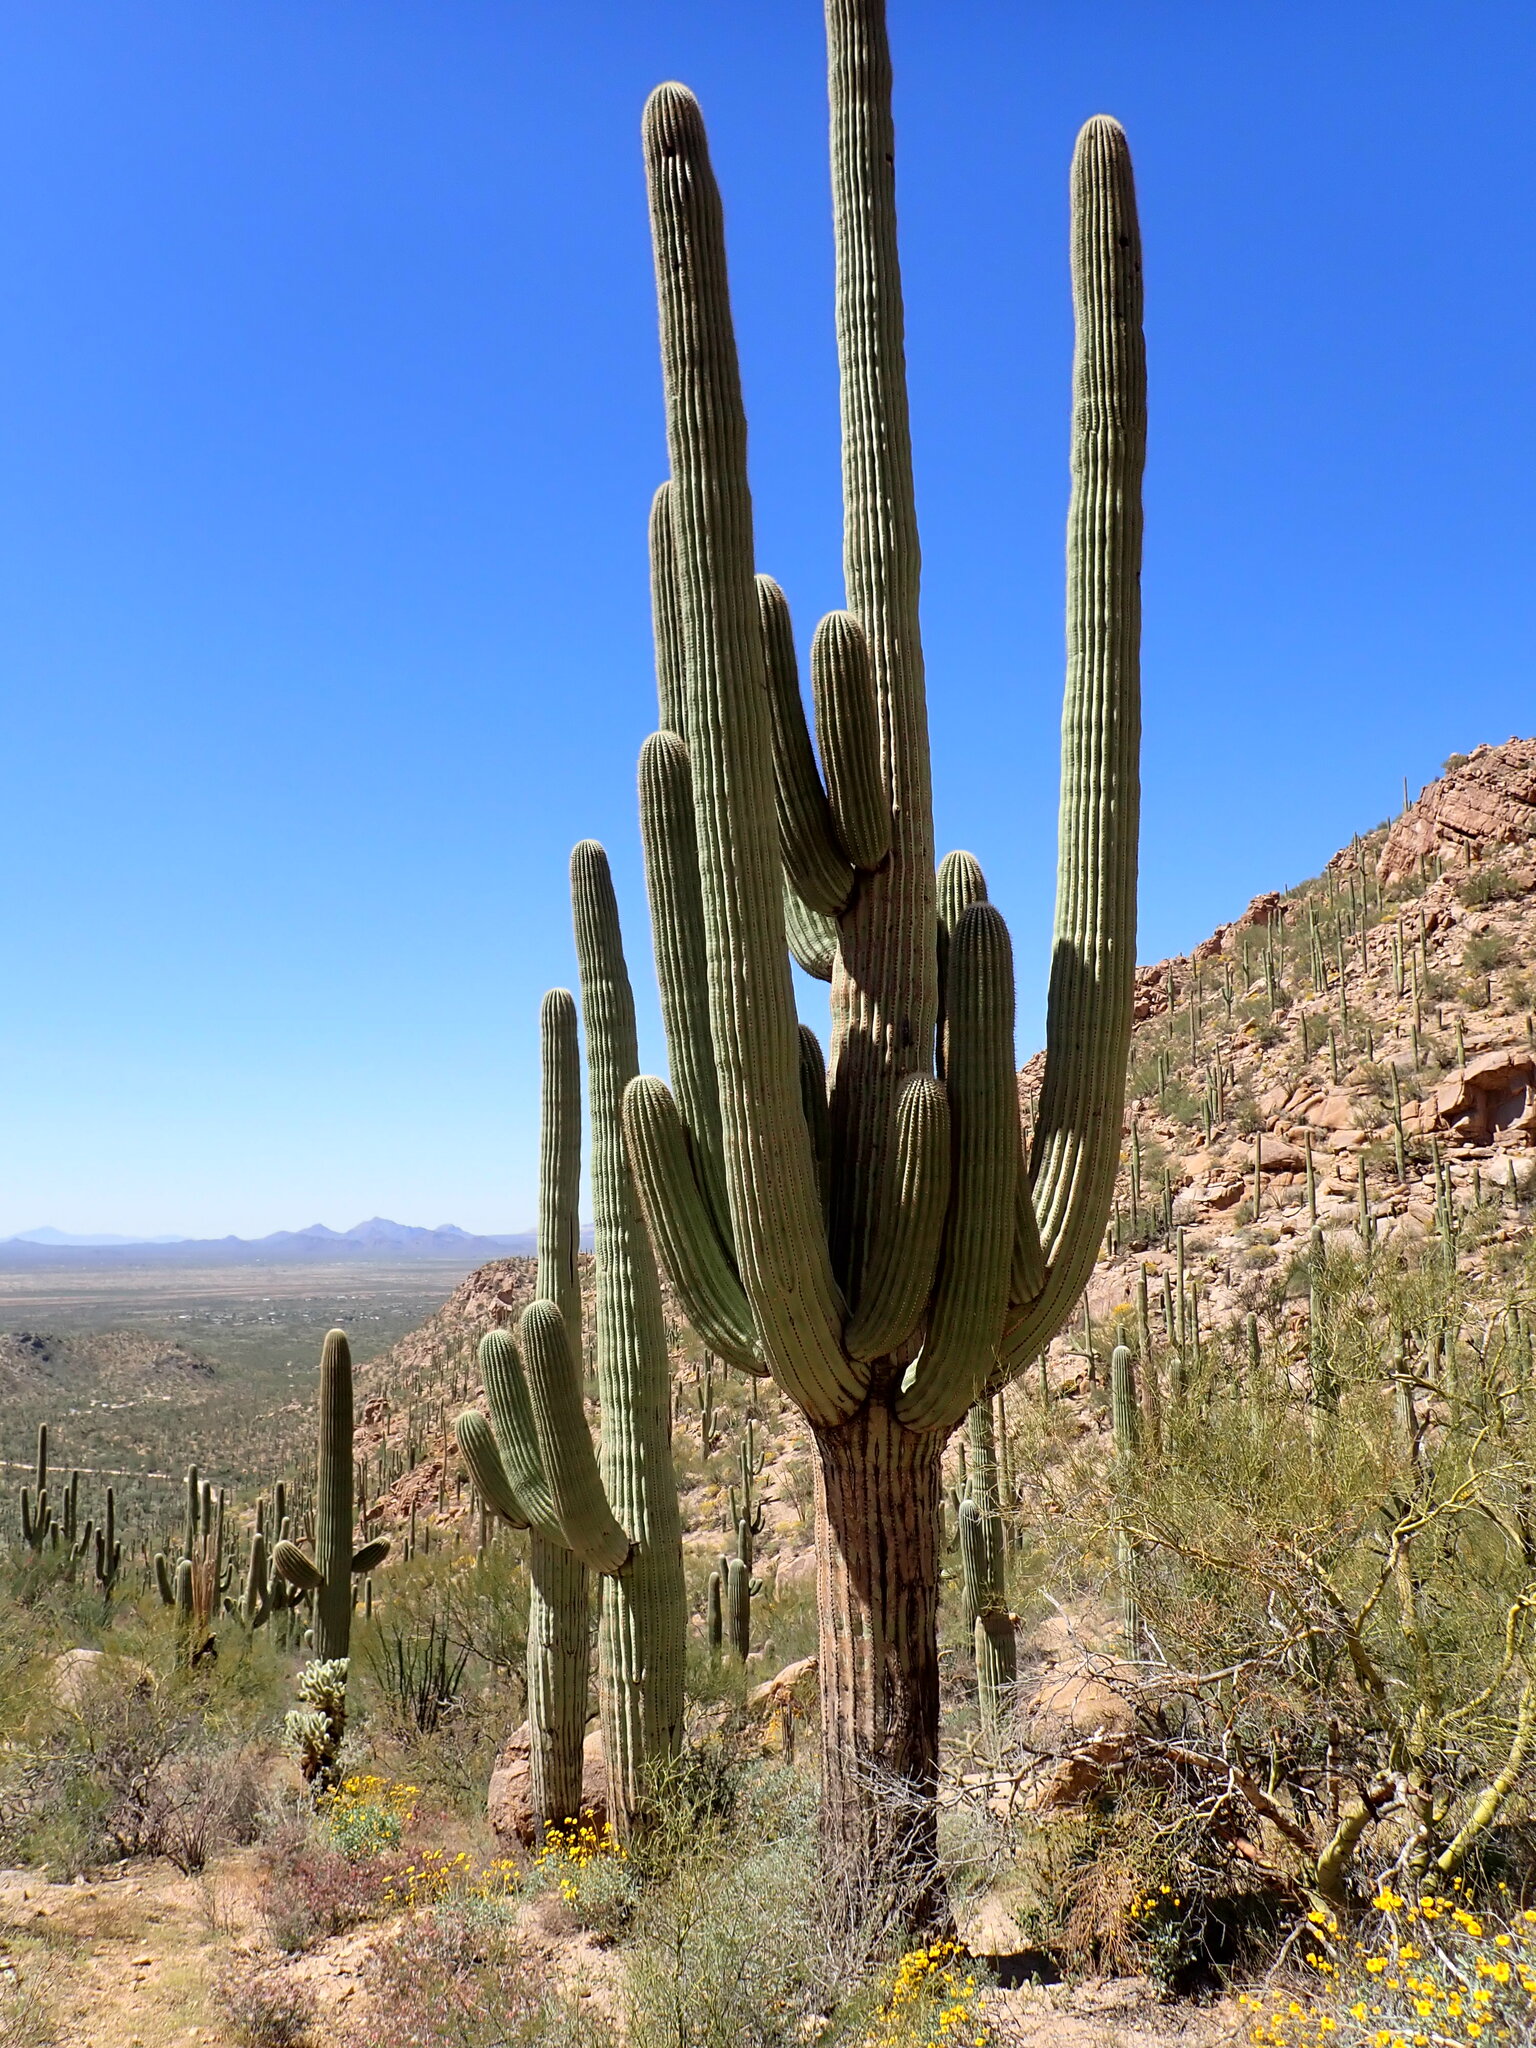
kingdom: Plantae
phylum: Tracheophyta
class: Magnoliopsida
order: Caryophyllales
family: Cactaceae
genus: Carnegiea
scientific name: Carnegiea gigantea
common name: Saguaro
